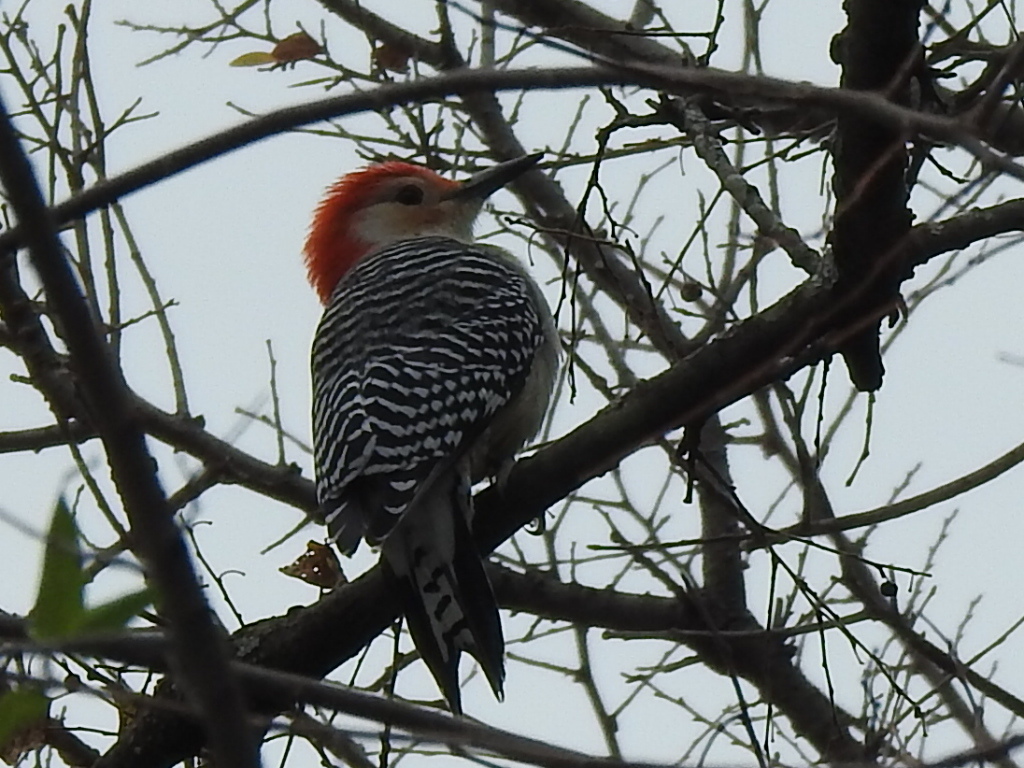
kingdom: Animalia
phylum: Chordata
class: Aves
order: Piciformes
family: Picidae
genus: Melanerpes
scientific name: Melanerpes carolinus
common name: Red-bellied woodpecker
